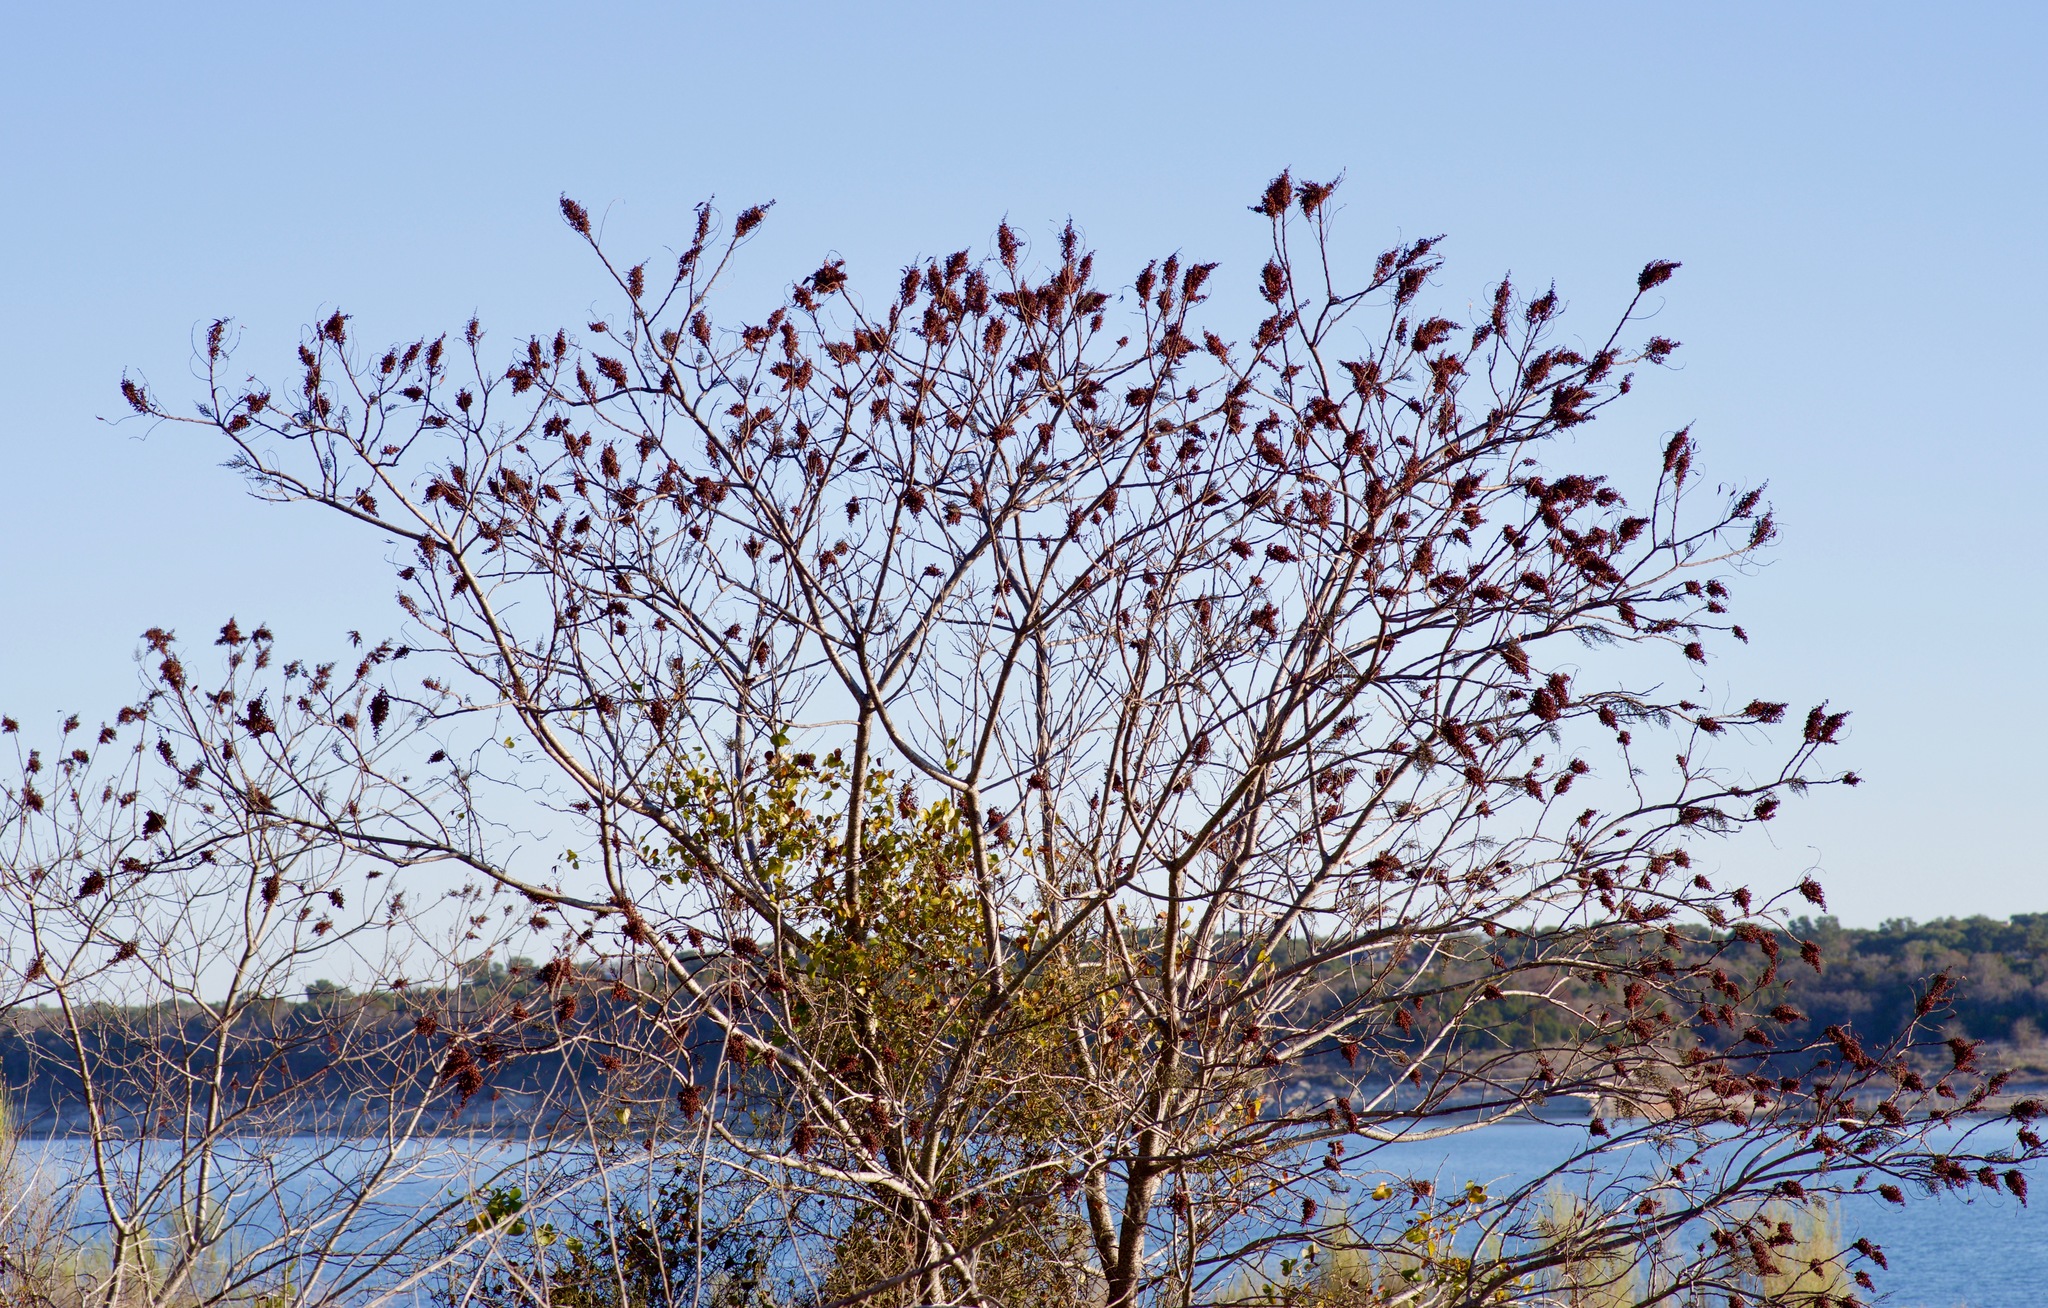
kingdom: Plantae
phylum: Tracheophyta
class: Magnoliopsida
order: Sapindales
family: Anacardiaceae
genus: Rhus
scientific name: Rhus lanceolata
